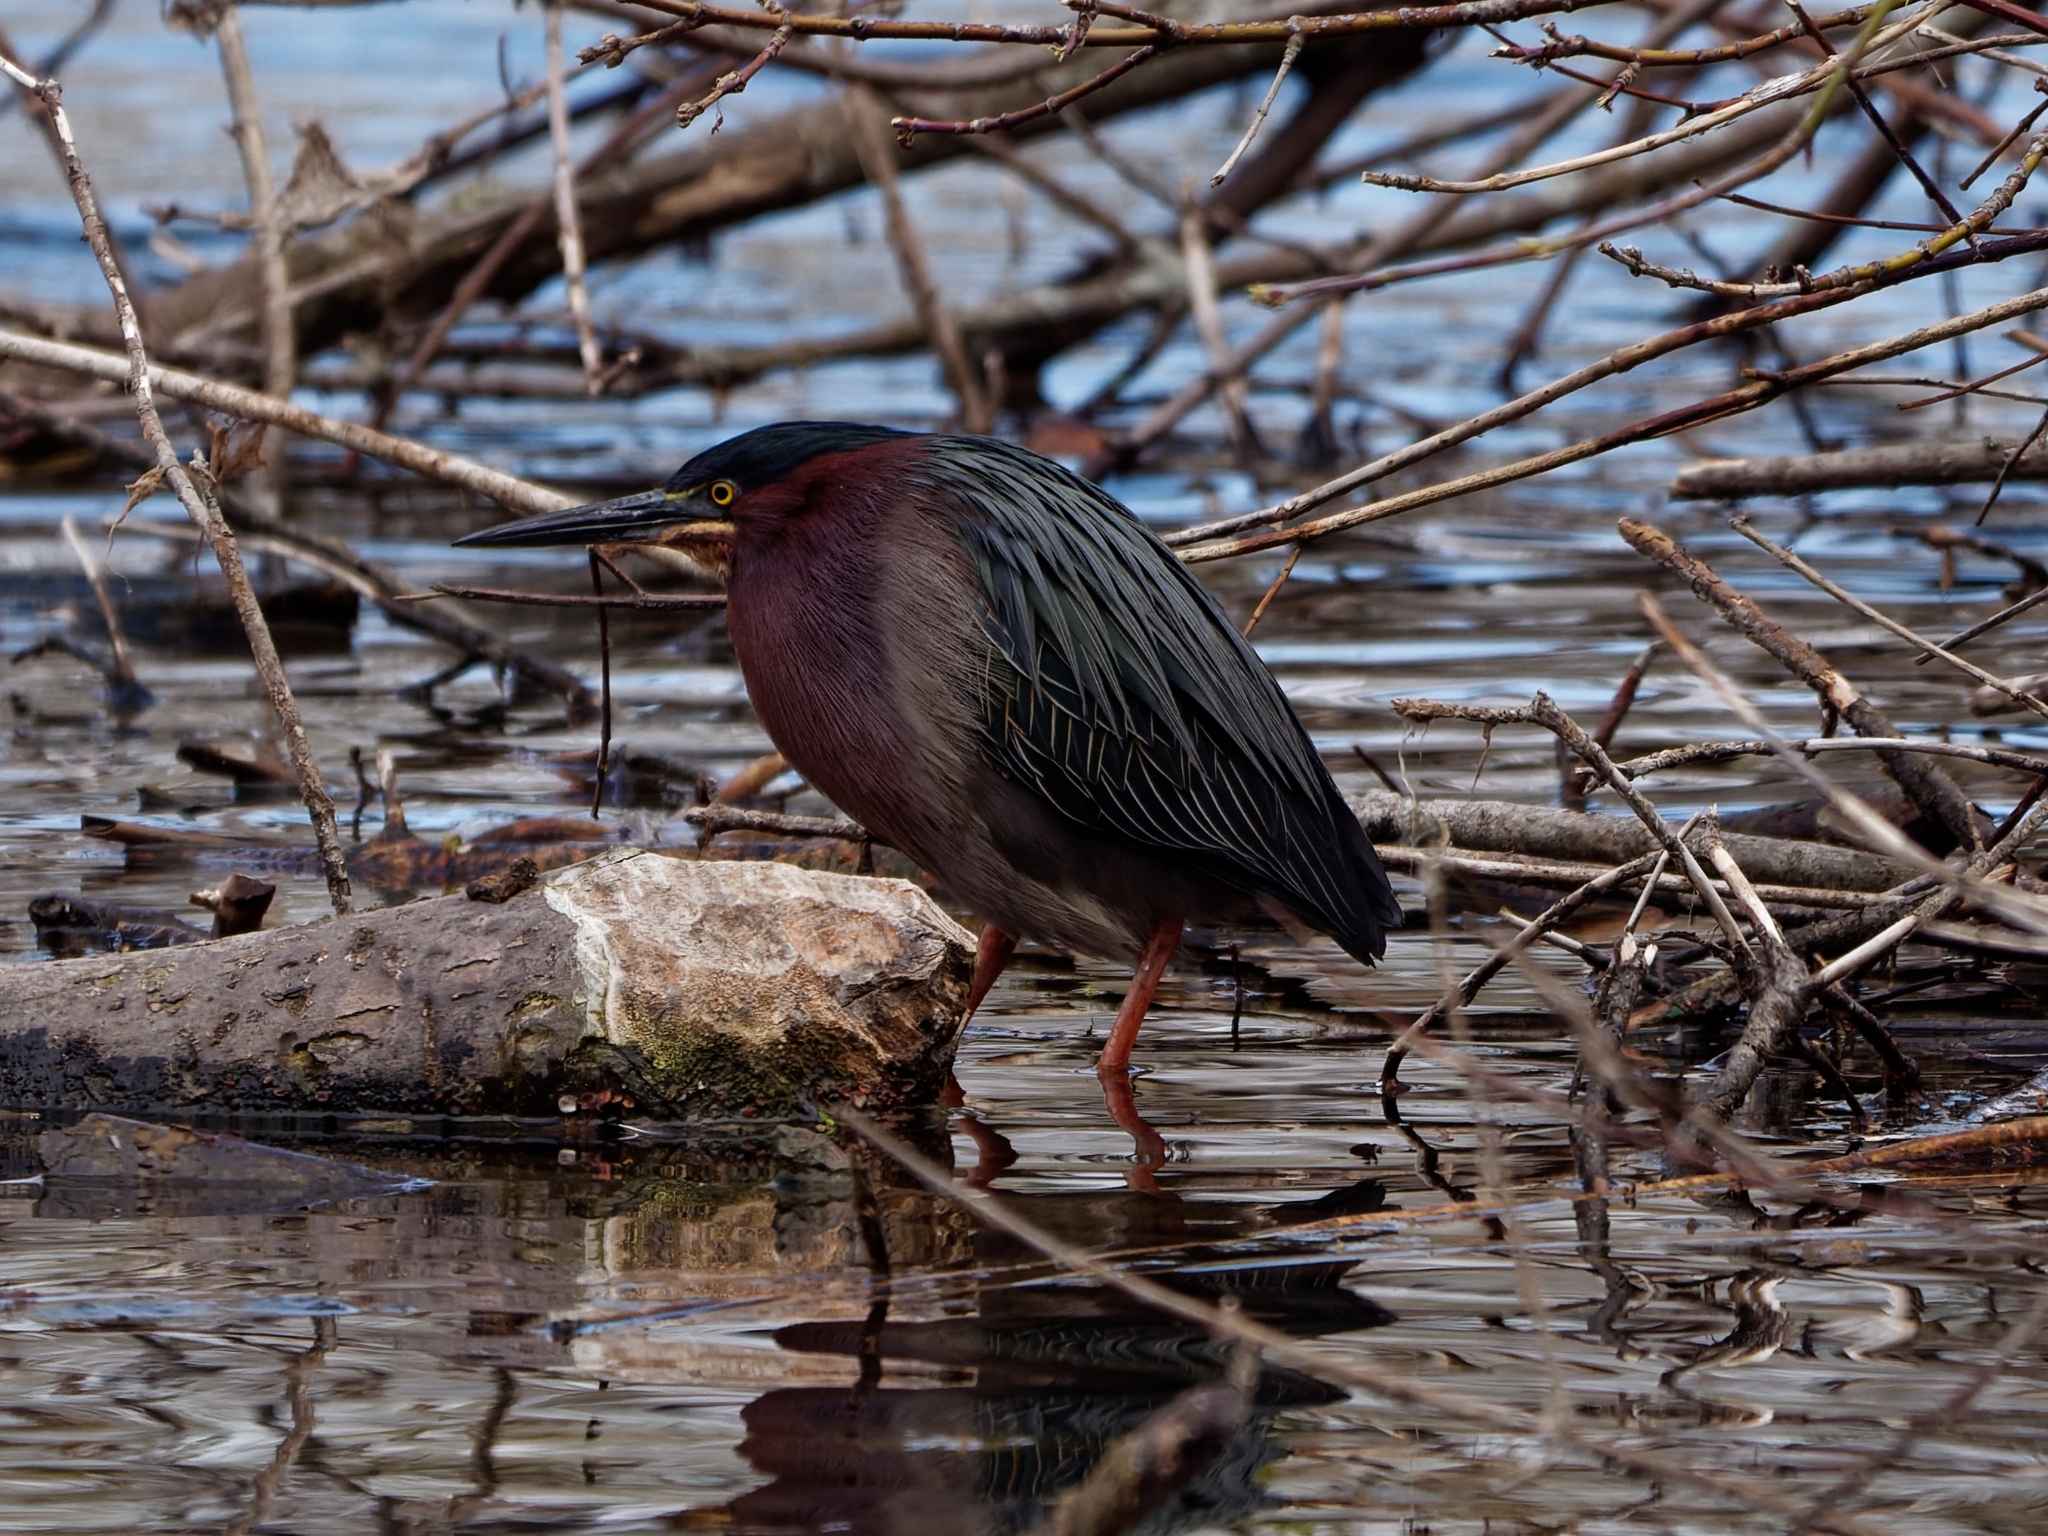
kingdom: Animalia
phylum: Chordata
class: Aves
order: Pelecaniformes
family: Ardeidae
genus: Butorides
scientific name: Butorides virescens
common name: Green heron
